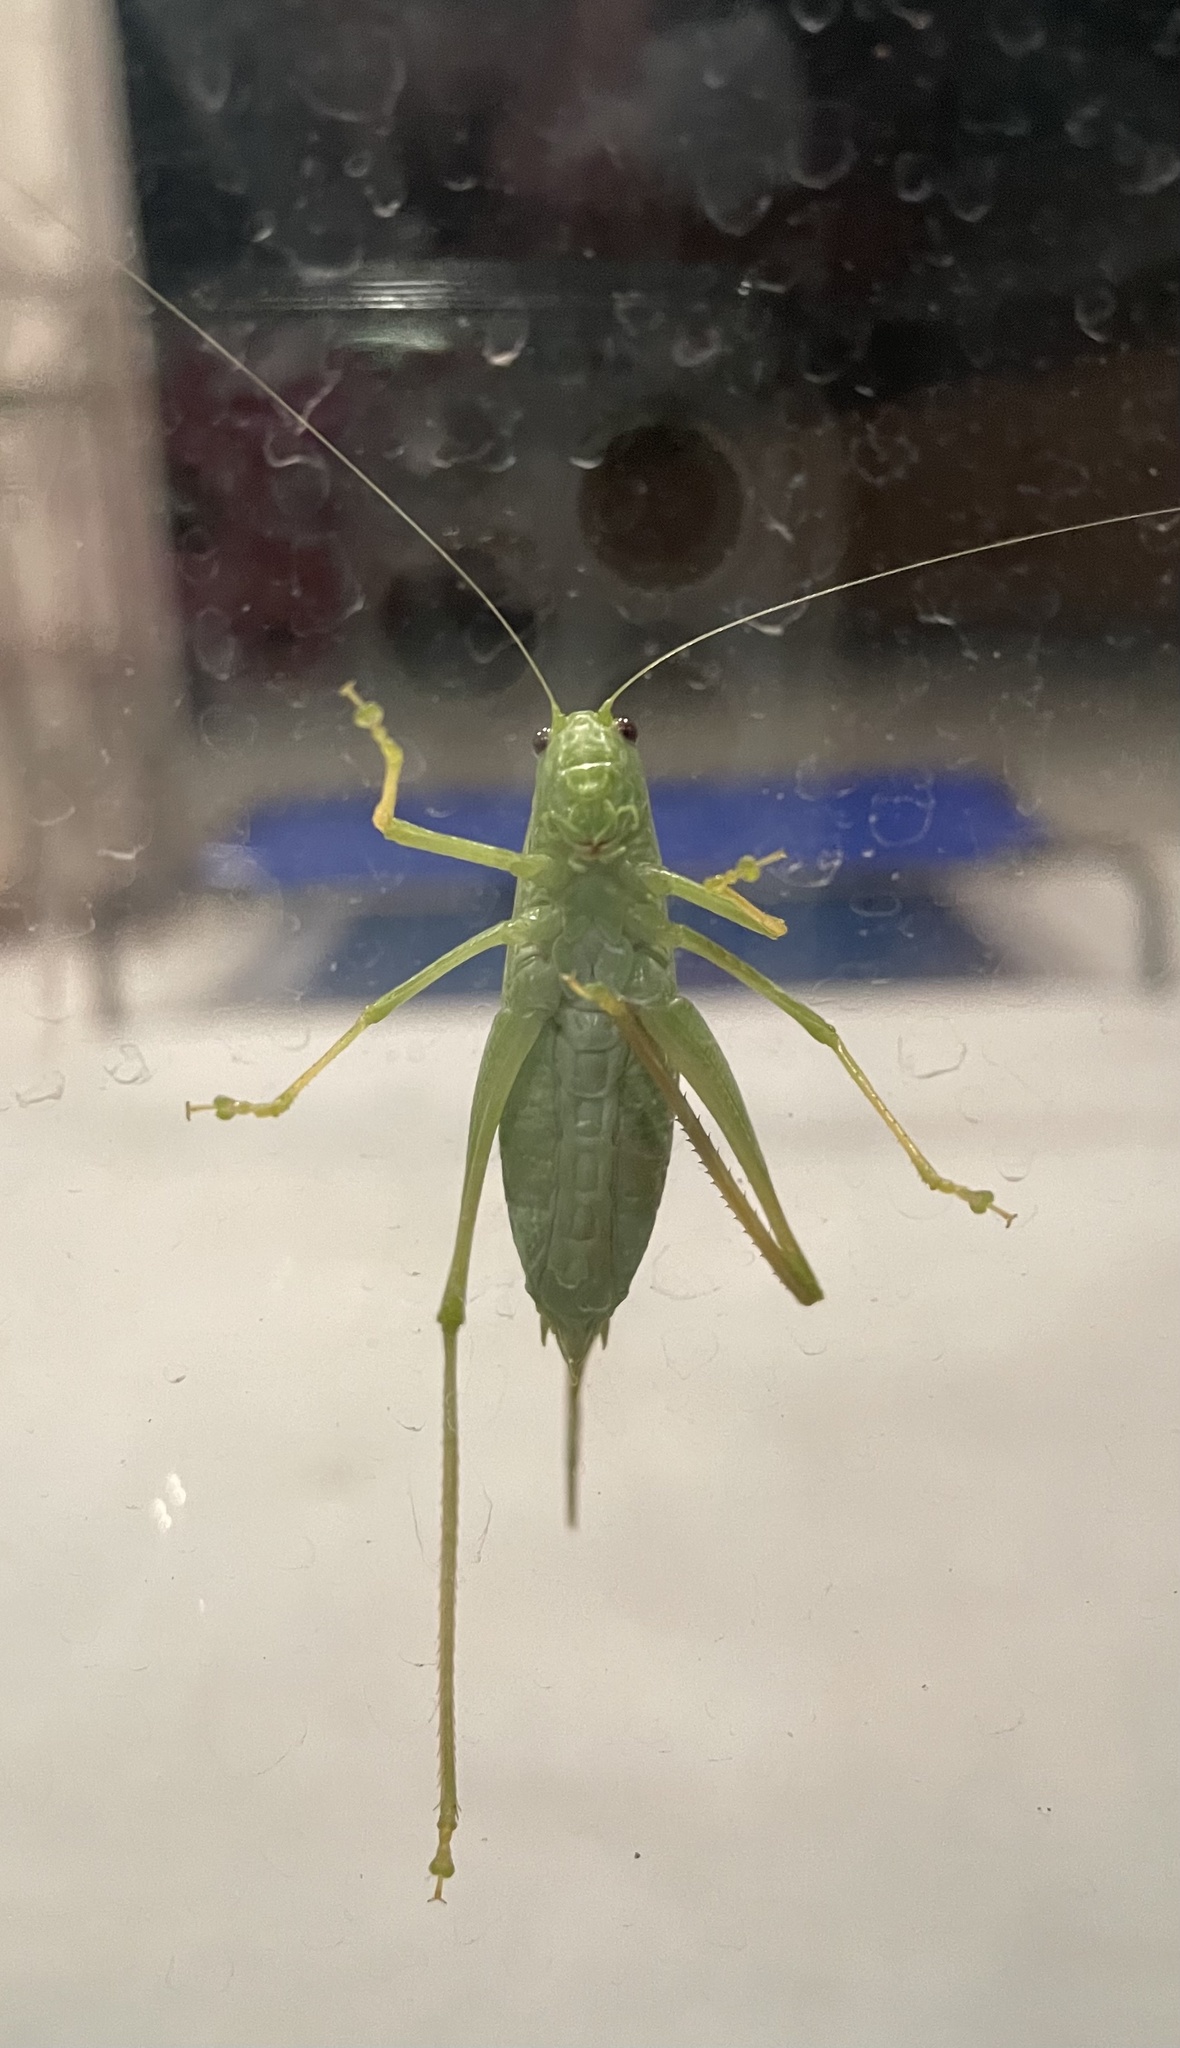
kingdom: Animalia
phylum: Arthropoda
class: Insecta
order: Orthoptera
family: Tettigoniidae
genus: Microcentrum
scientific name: Microcentrum rhombifolium
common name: Broad-winged katydid
